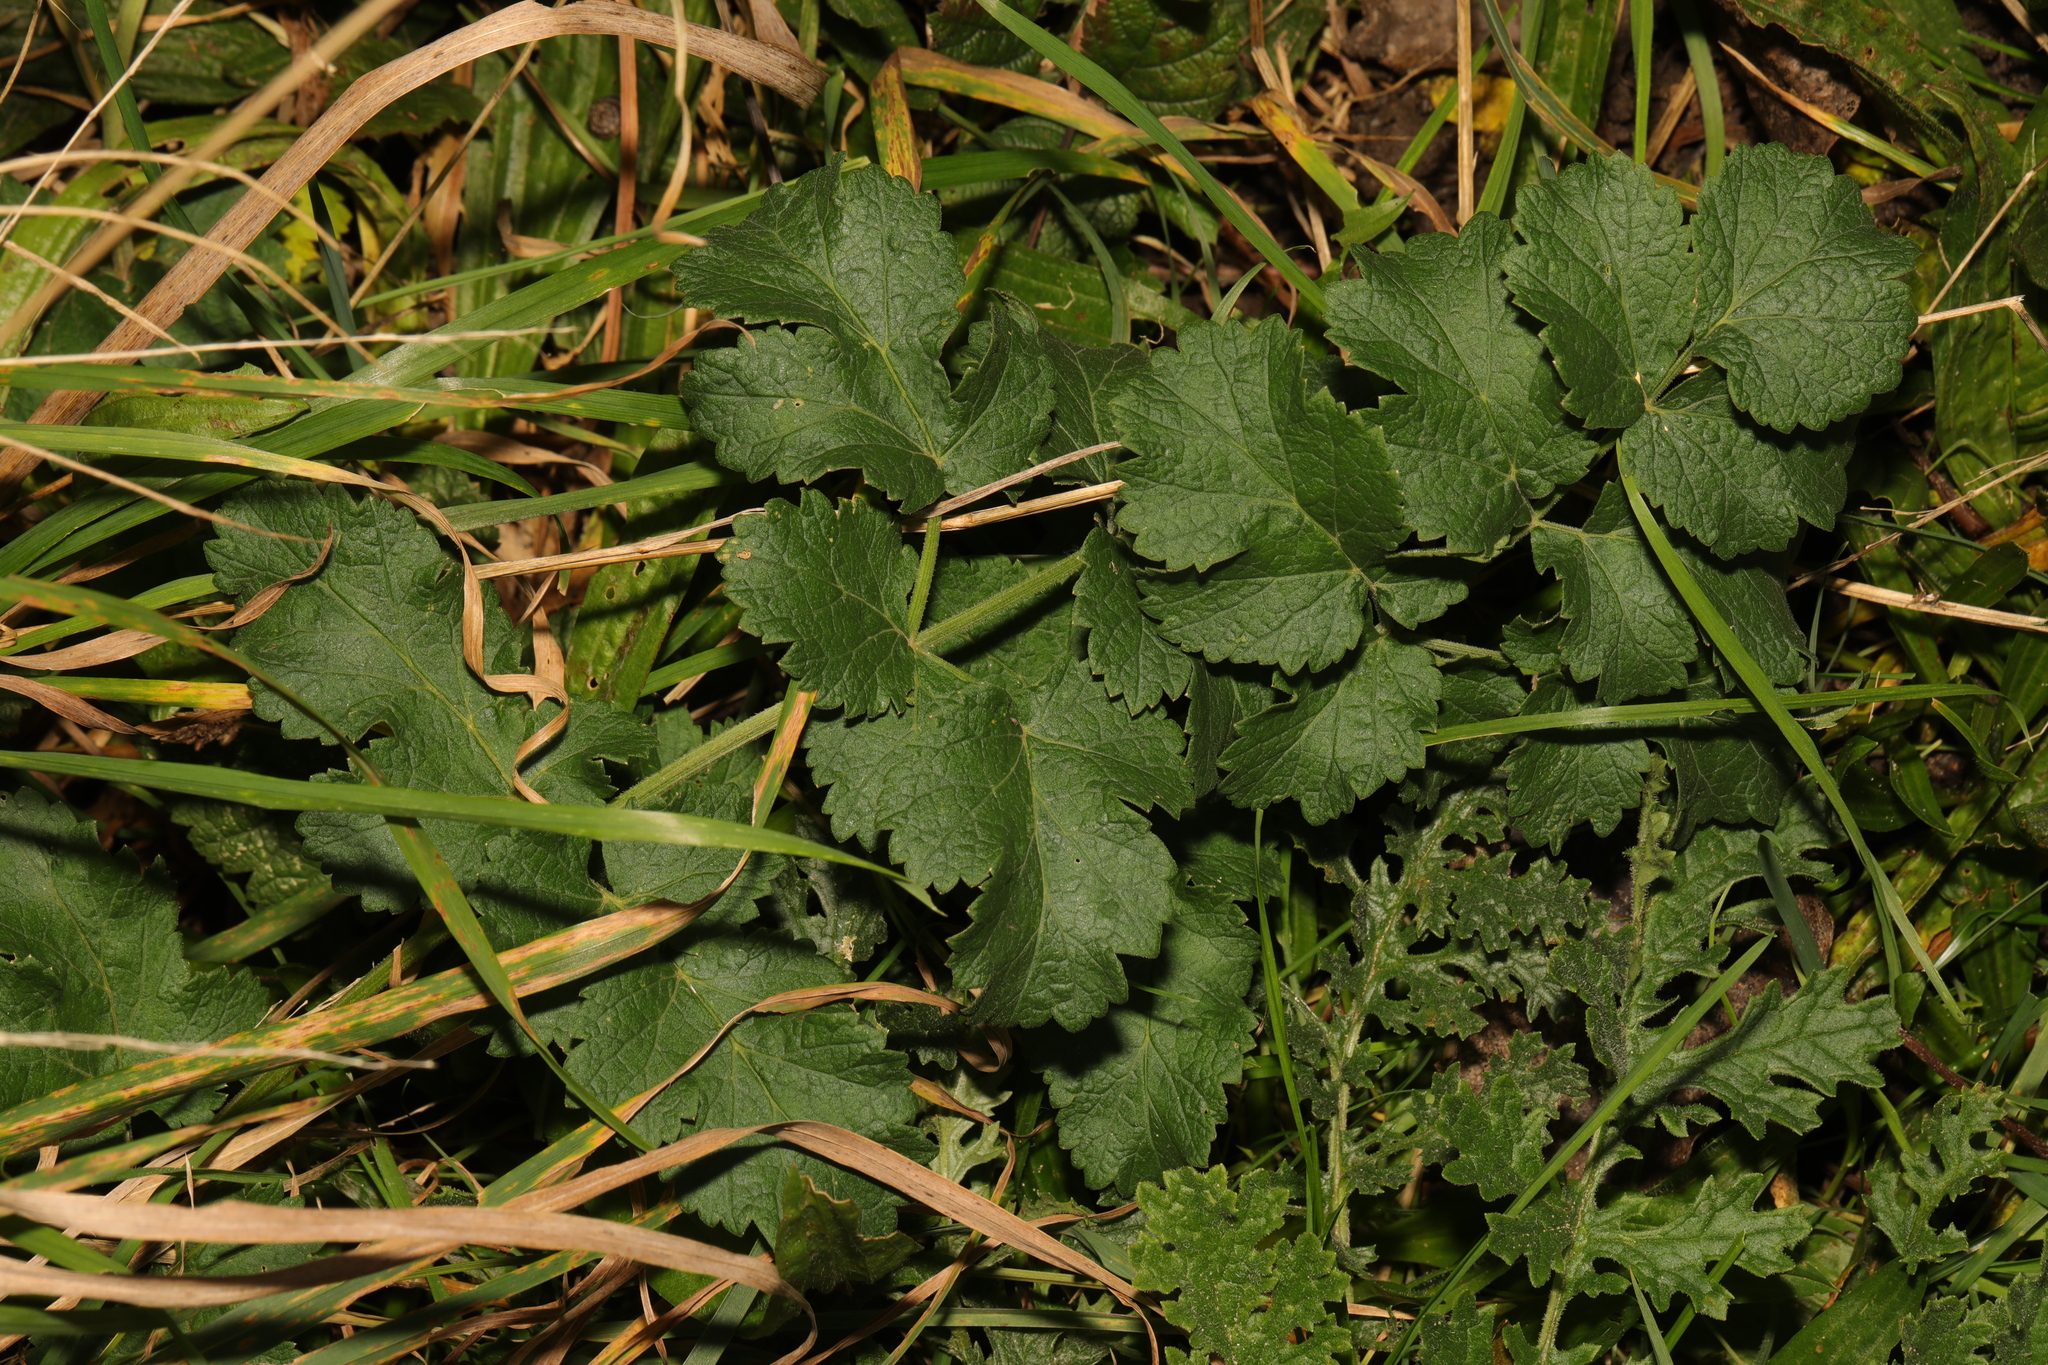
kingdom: Plantae
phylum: Tracheophyta
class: Magnoliopsida
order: Apiales
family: Apiaceae
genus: Pastinaca
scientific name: Pastinaca sativa
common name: Wild parsnip
